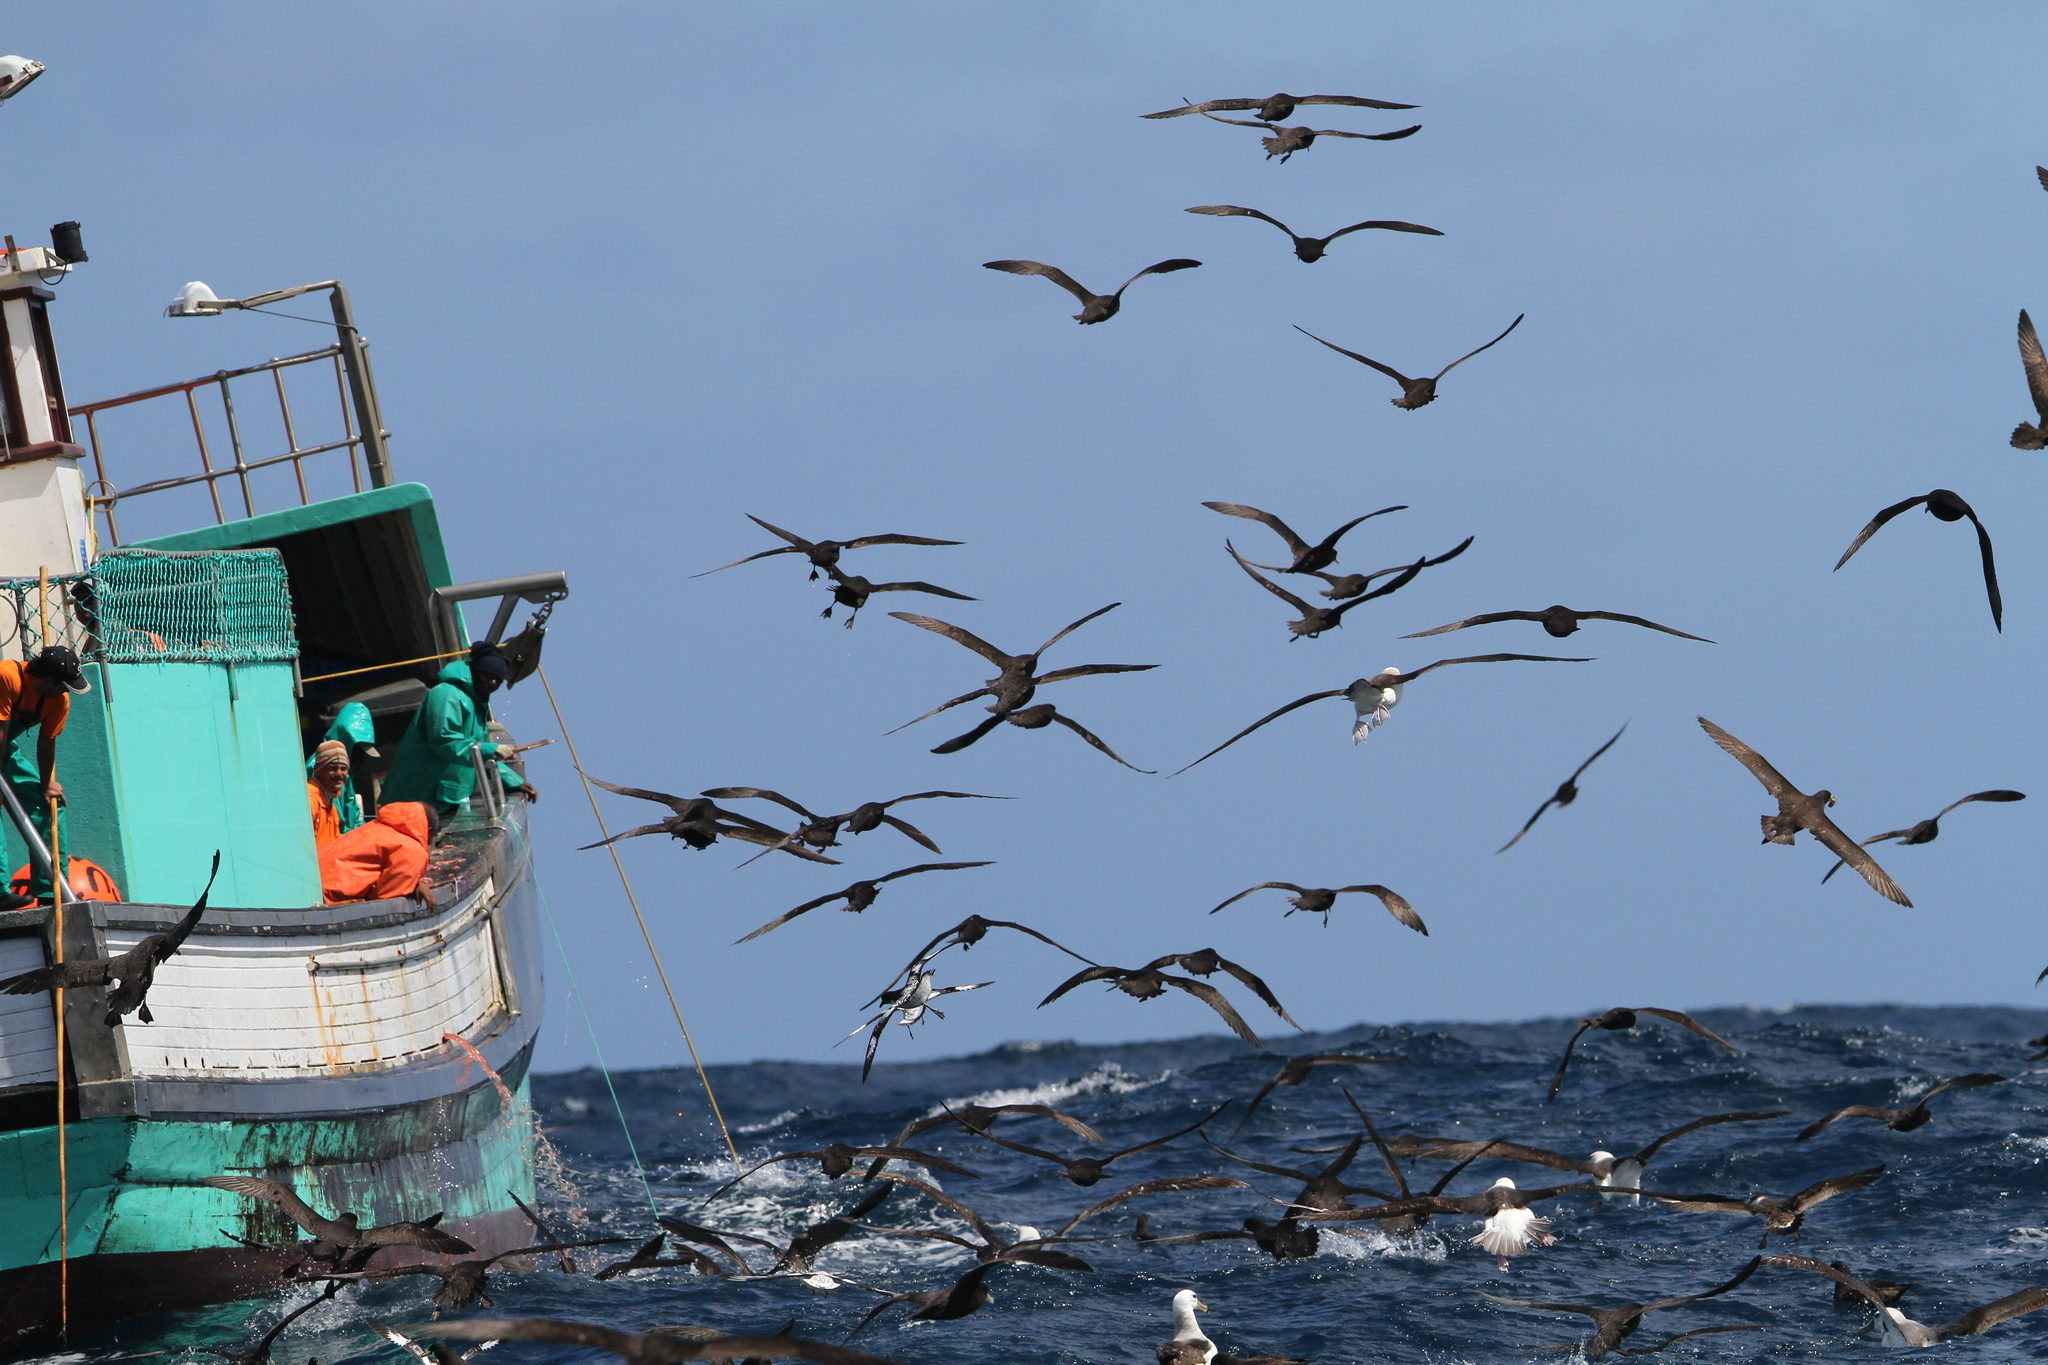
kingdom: Animalia
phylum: Chordata
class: Aves
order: Procellariiformes
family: Procellariidae
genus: Procellaria
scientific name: Procellaria aequinoctialis
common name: White-chinned petrel
